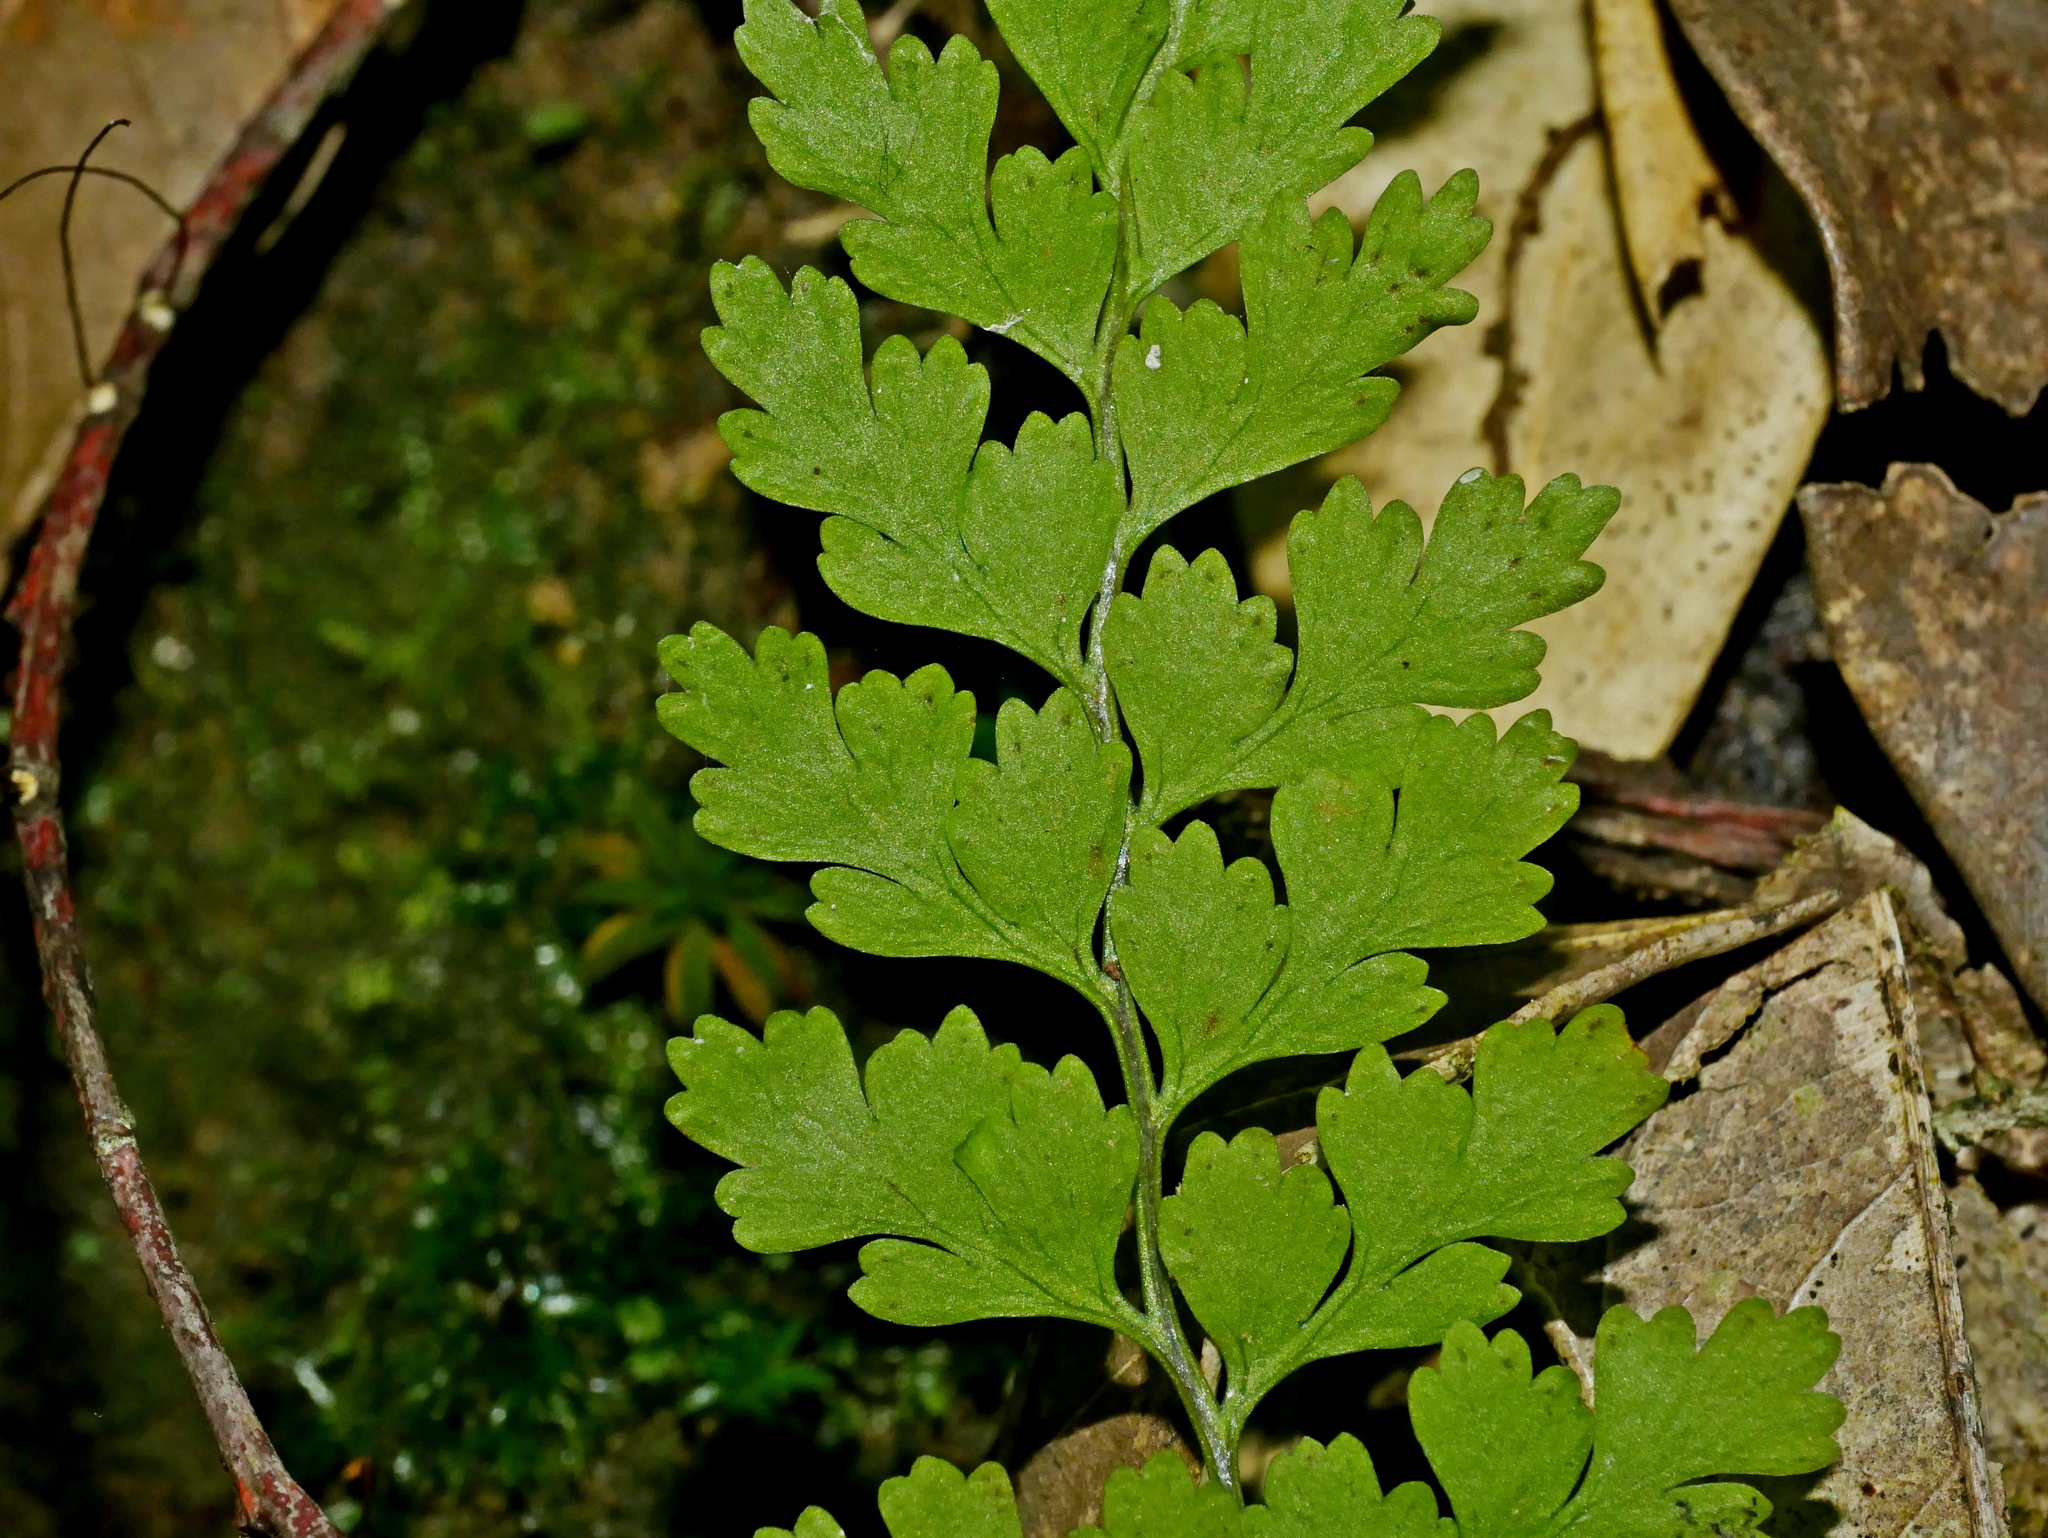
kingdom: Plantae
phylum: Tracheophyta
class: Polypodiopsida
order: Polypodiales
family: Cystopteridaceae
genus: Cystopteris
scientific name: Cystopteris moupinensis
